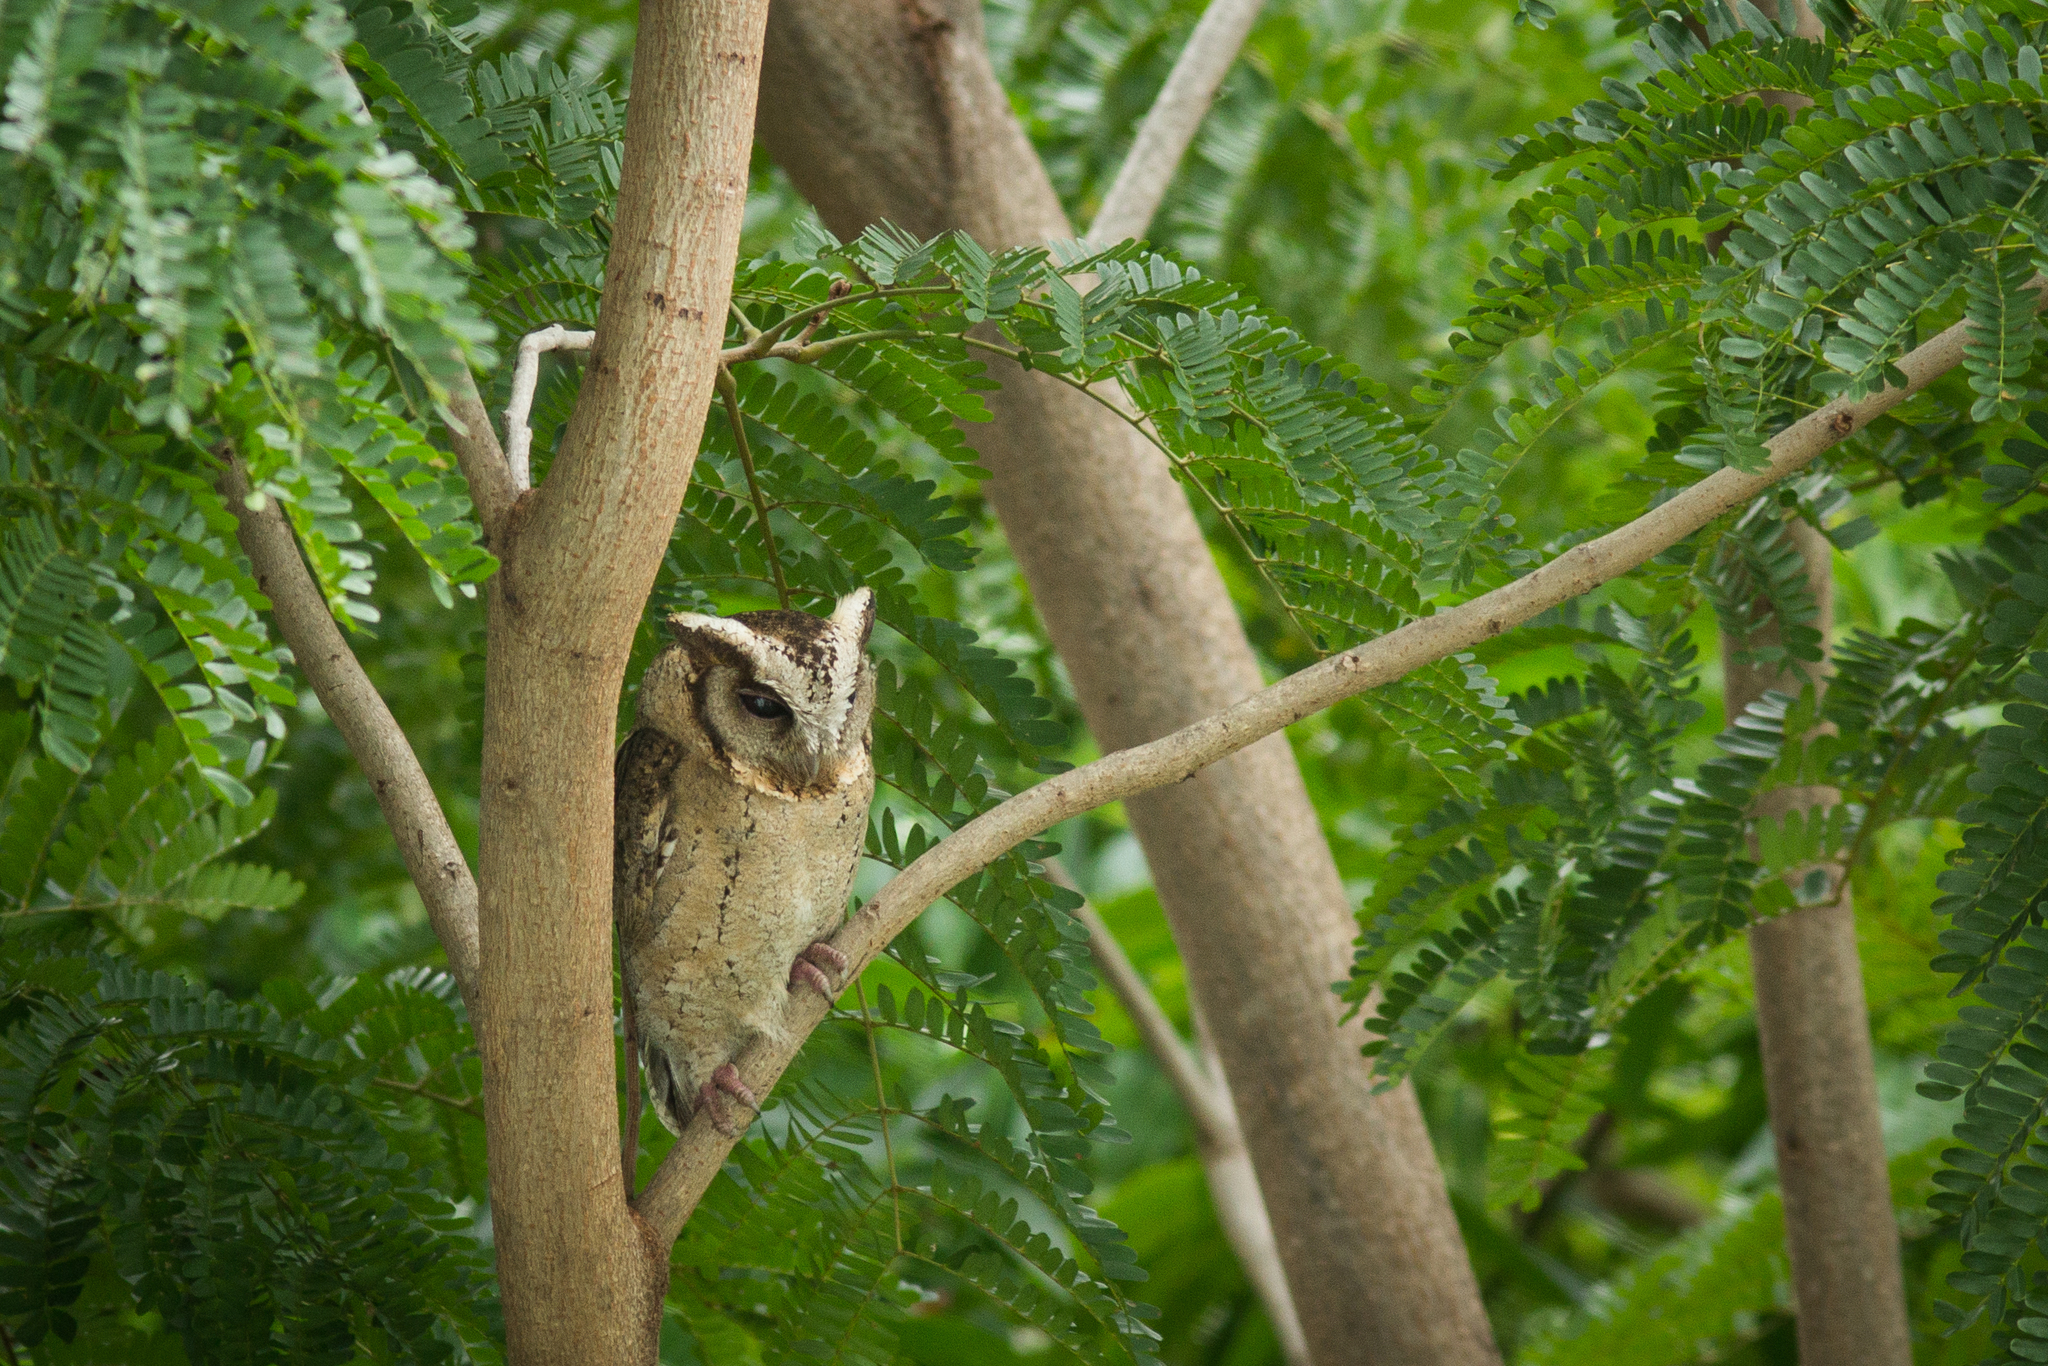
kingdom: Animalia
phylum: Chordata
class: Aves
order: Strigiformes
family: Strigidae
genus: Otus
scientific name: Otus lettia
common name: Collared scops owl
